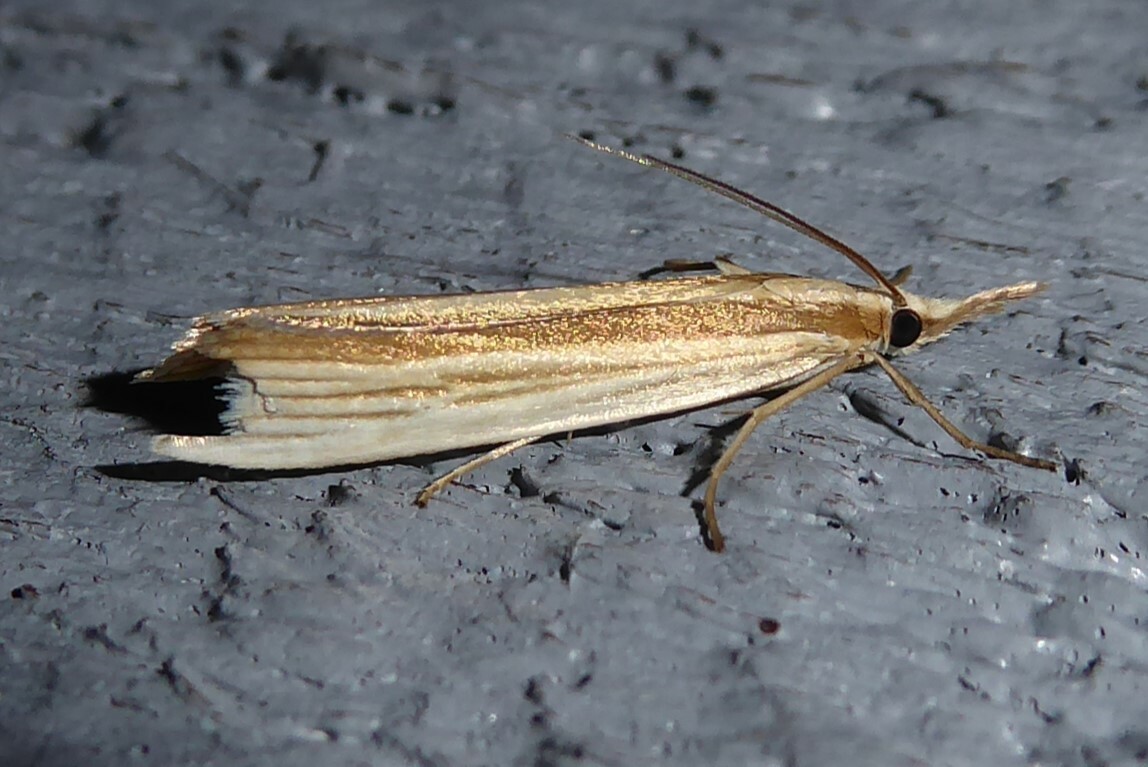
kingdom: Animalia
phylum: Arthropoda
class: Insecta
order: Lepidoptera
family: Crambidae
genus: Orocrambus
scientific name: Orocrambus angustipennis
